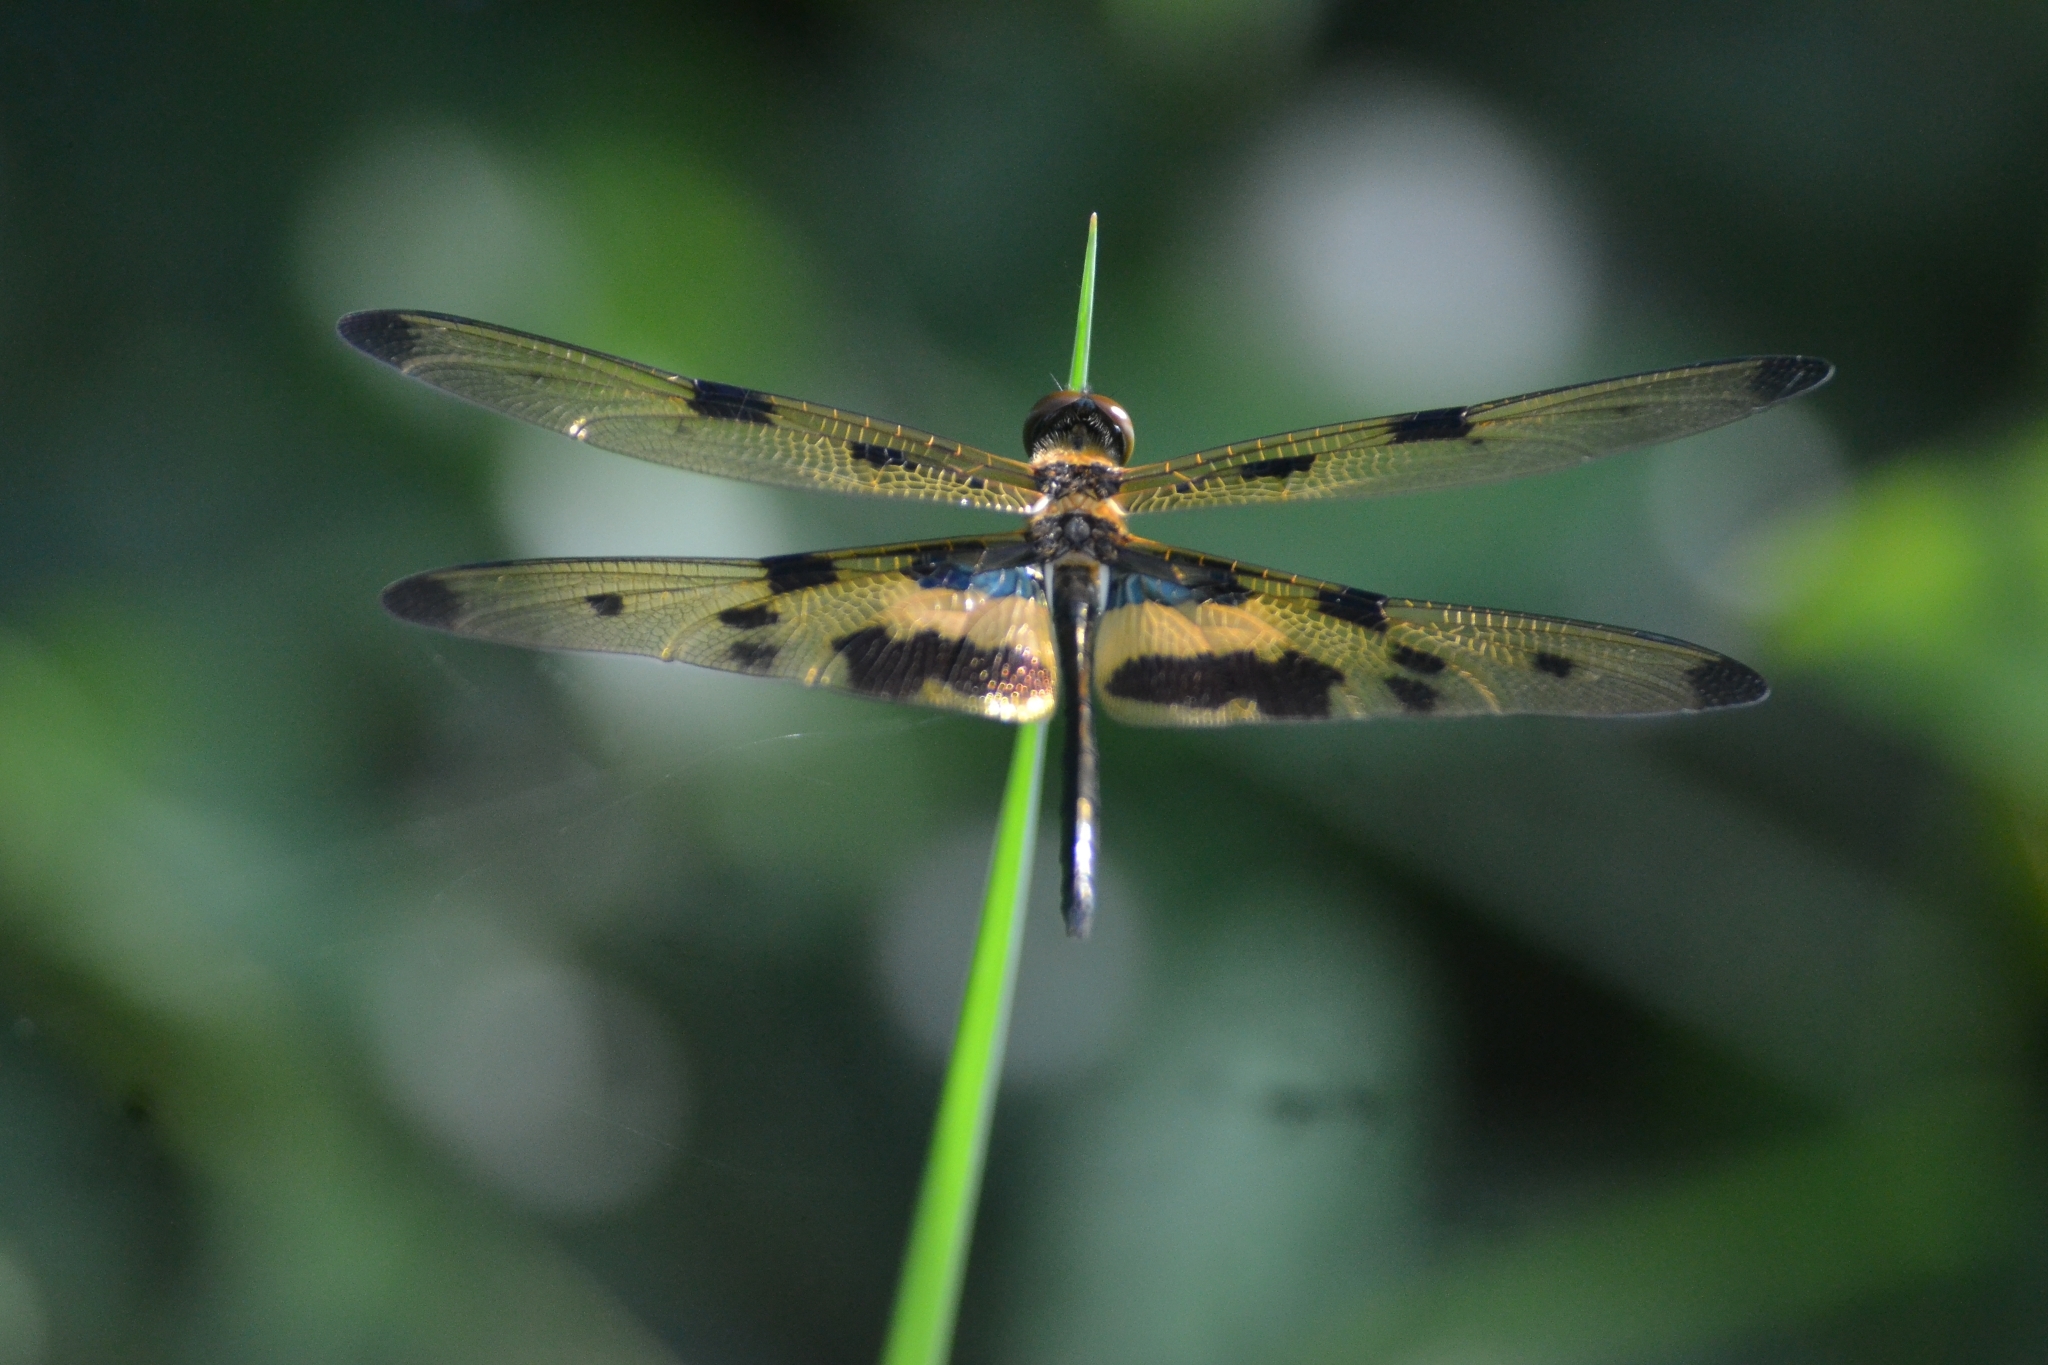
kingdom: Animalia
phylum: Arthropoda
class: Insecta
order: Odonata
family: Libellulidae
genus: Rhyothemis
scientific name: Rhyothemis variegata
